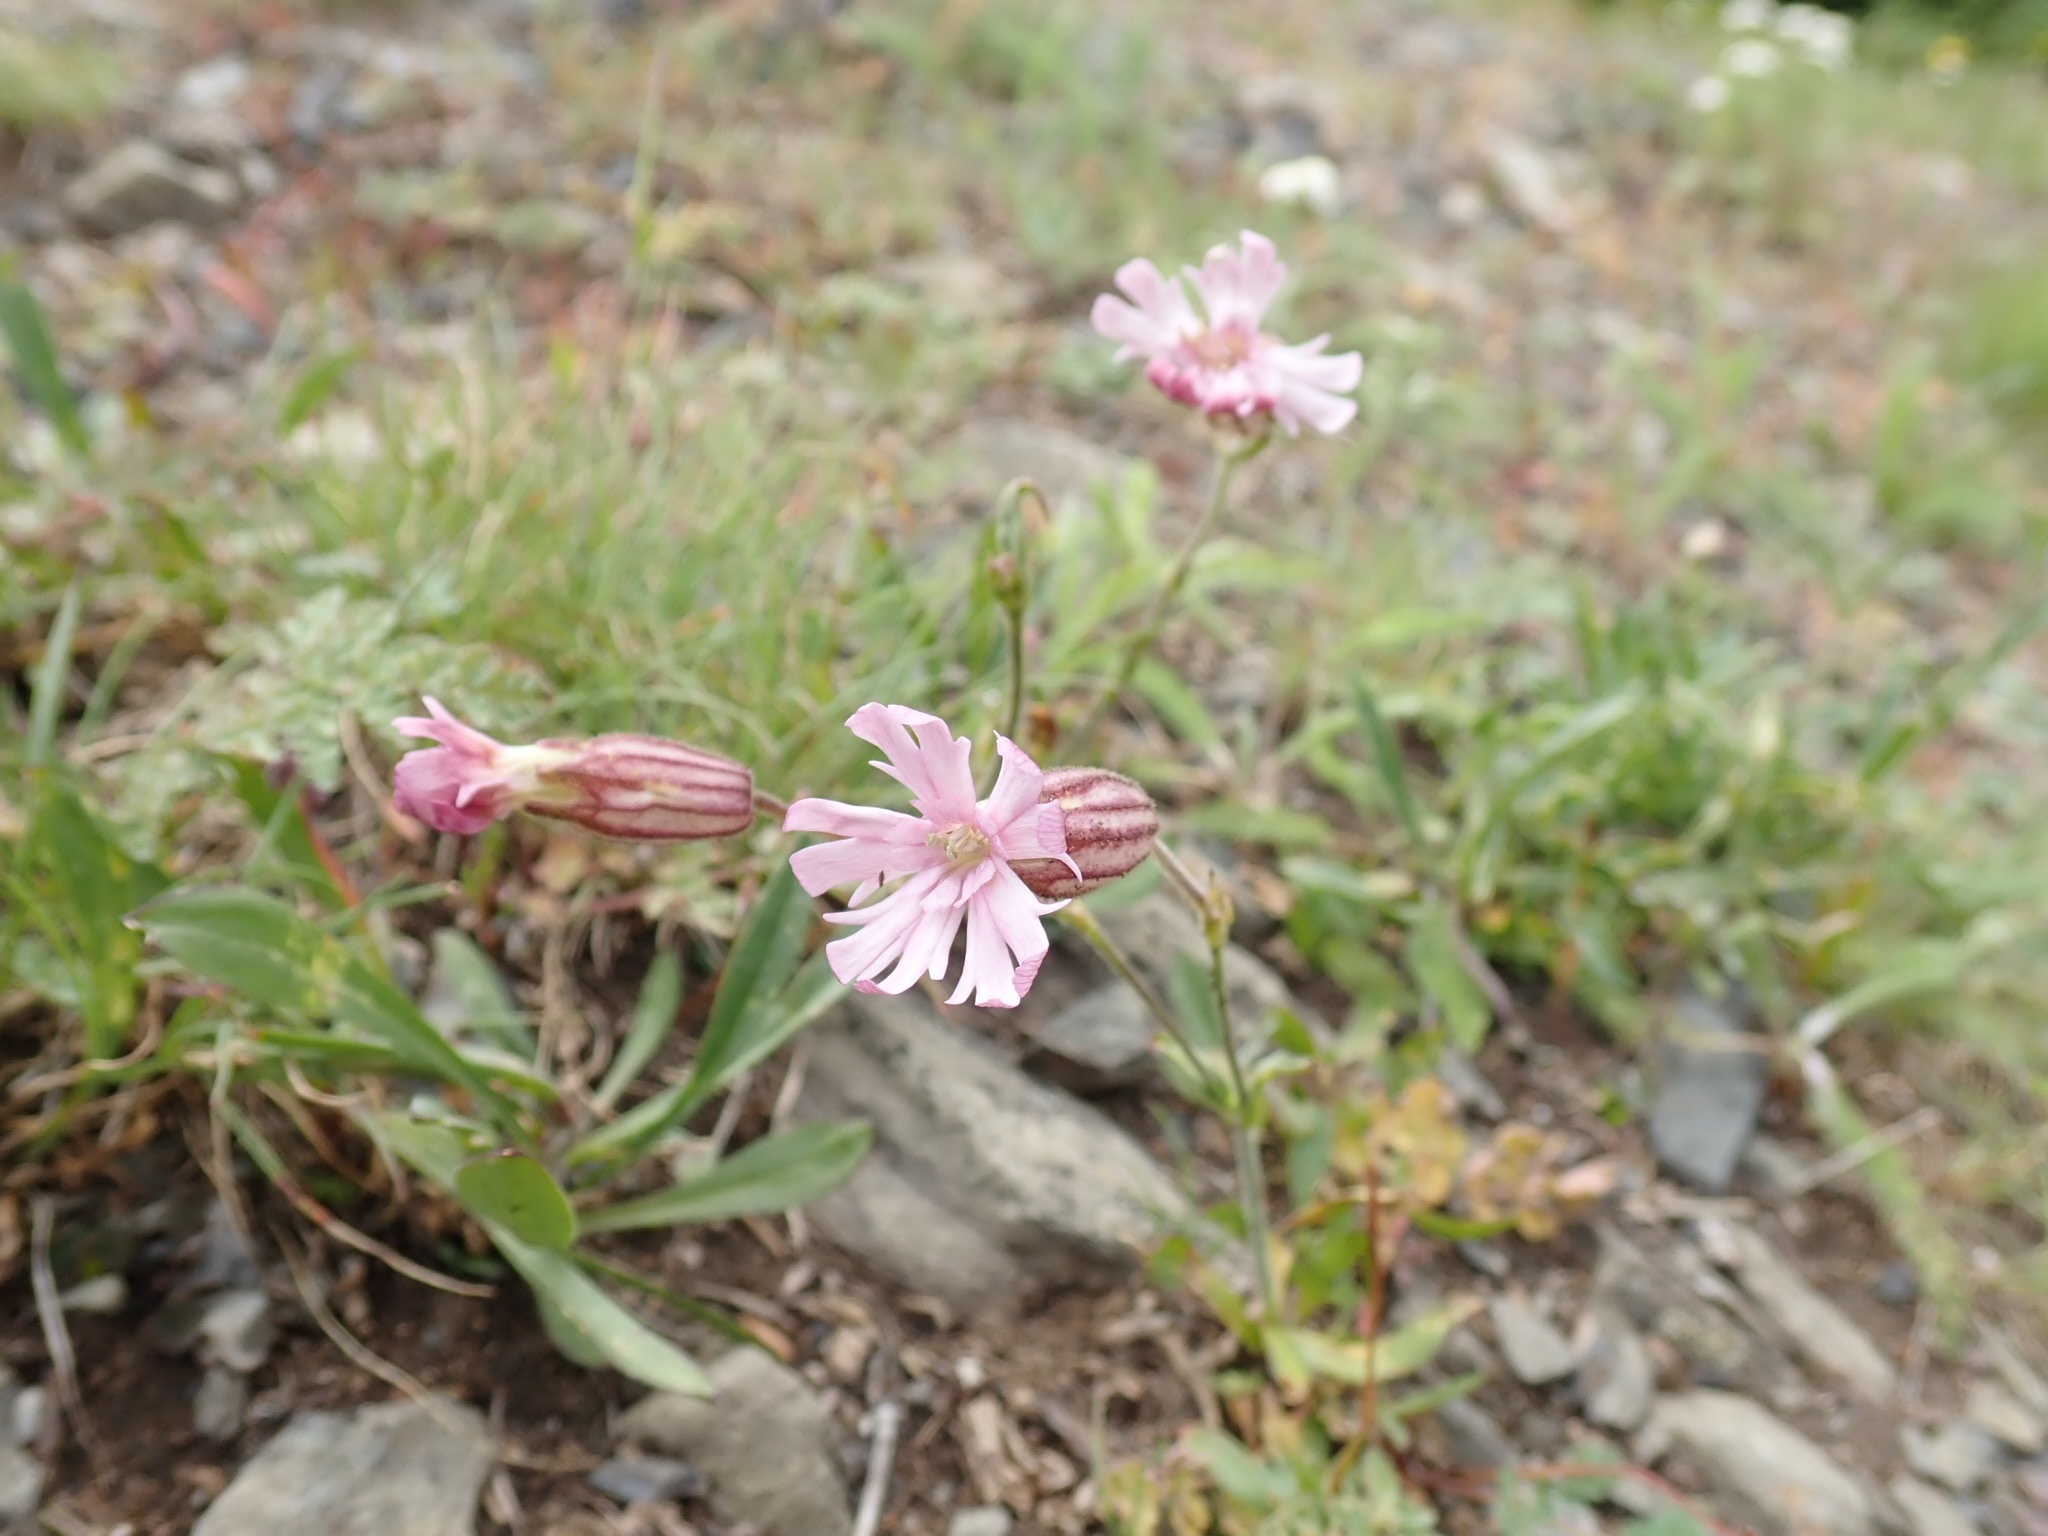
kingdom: Plantae
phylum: Tracheophyta
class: Magnoliopsida
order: Caryophyllales
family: Caryophyllaceae
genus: Silene
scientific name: Silene parryi
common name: Parry's campion
